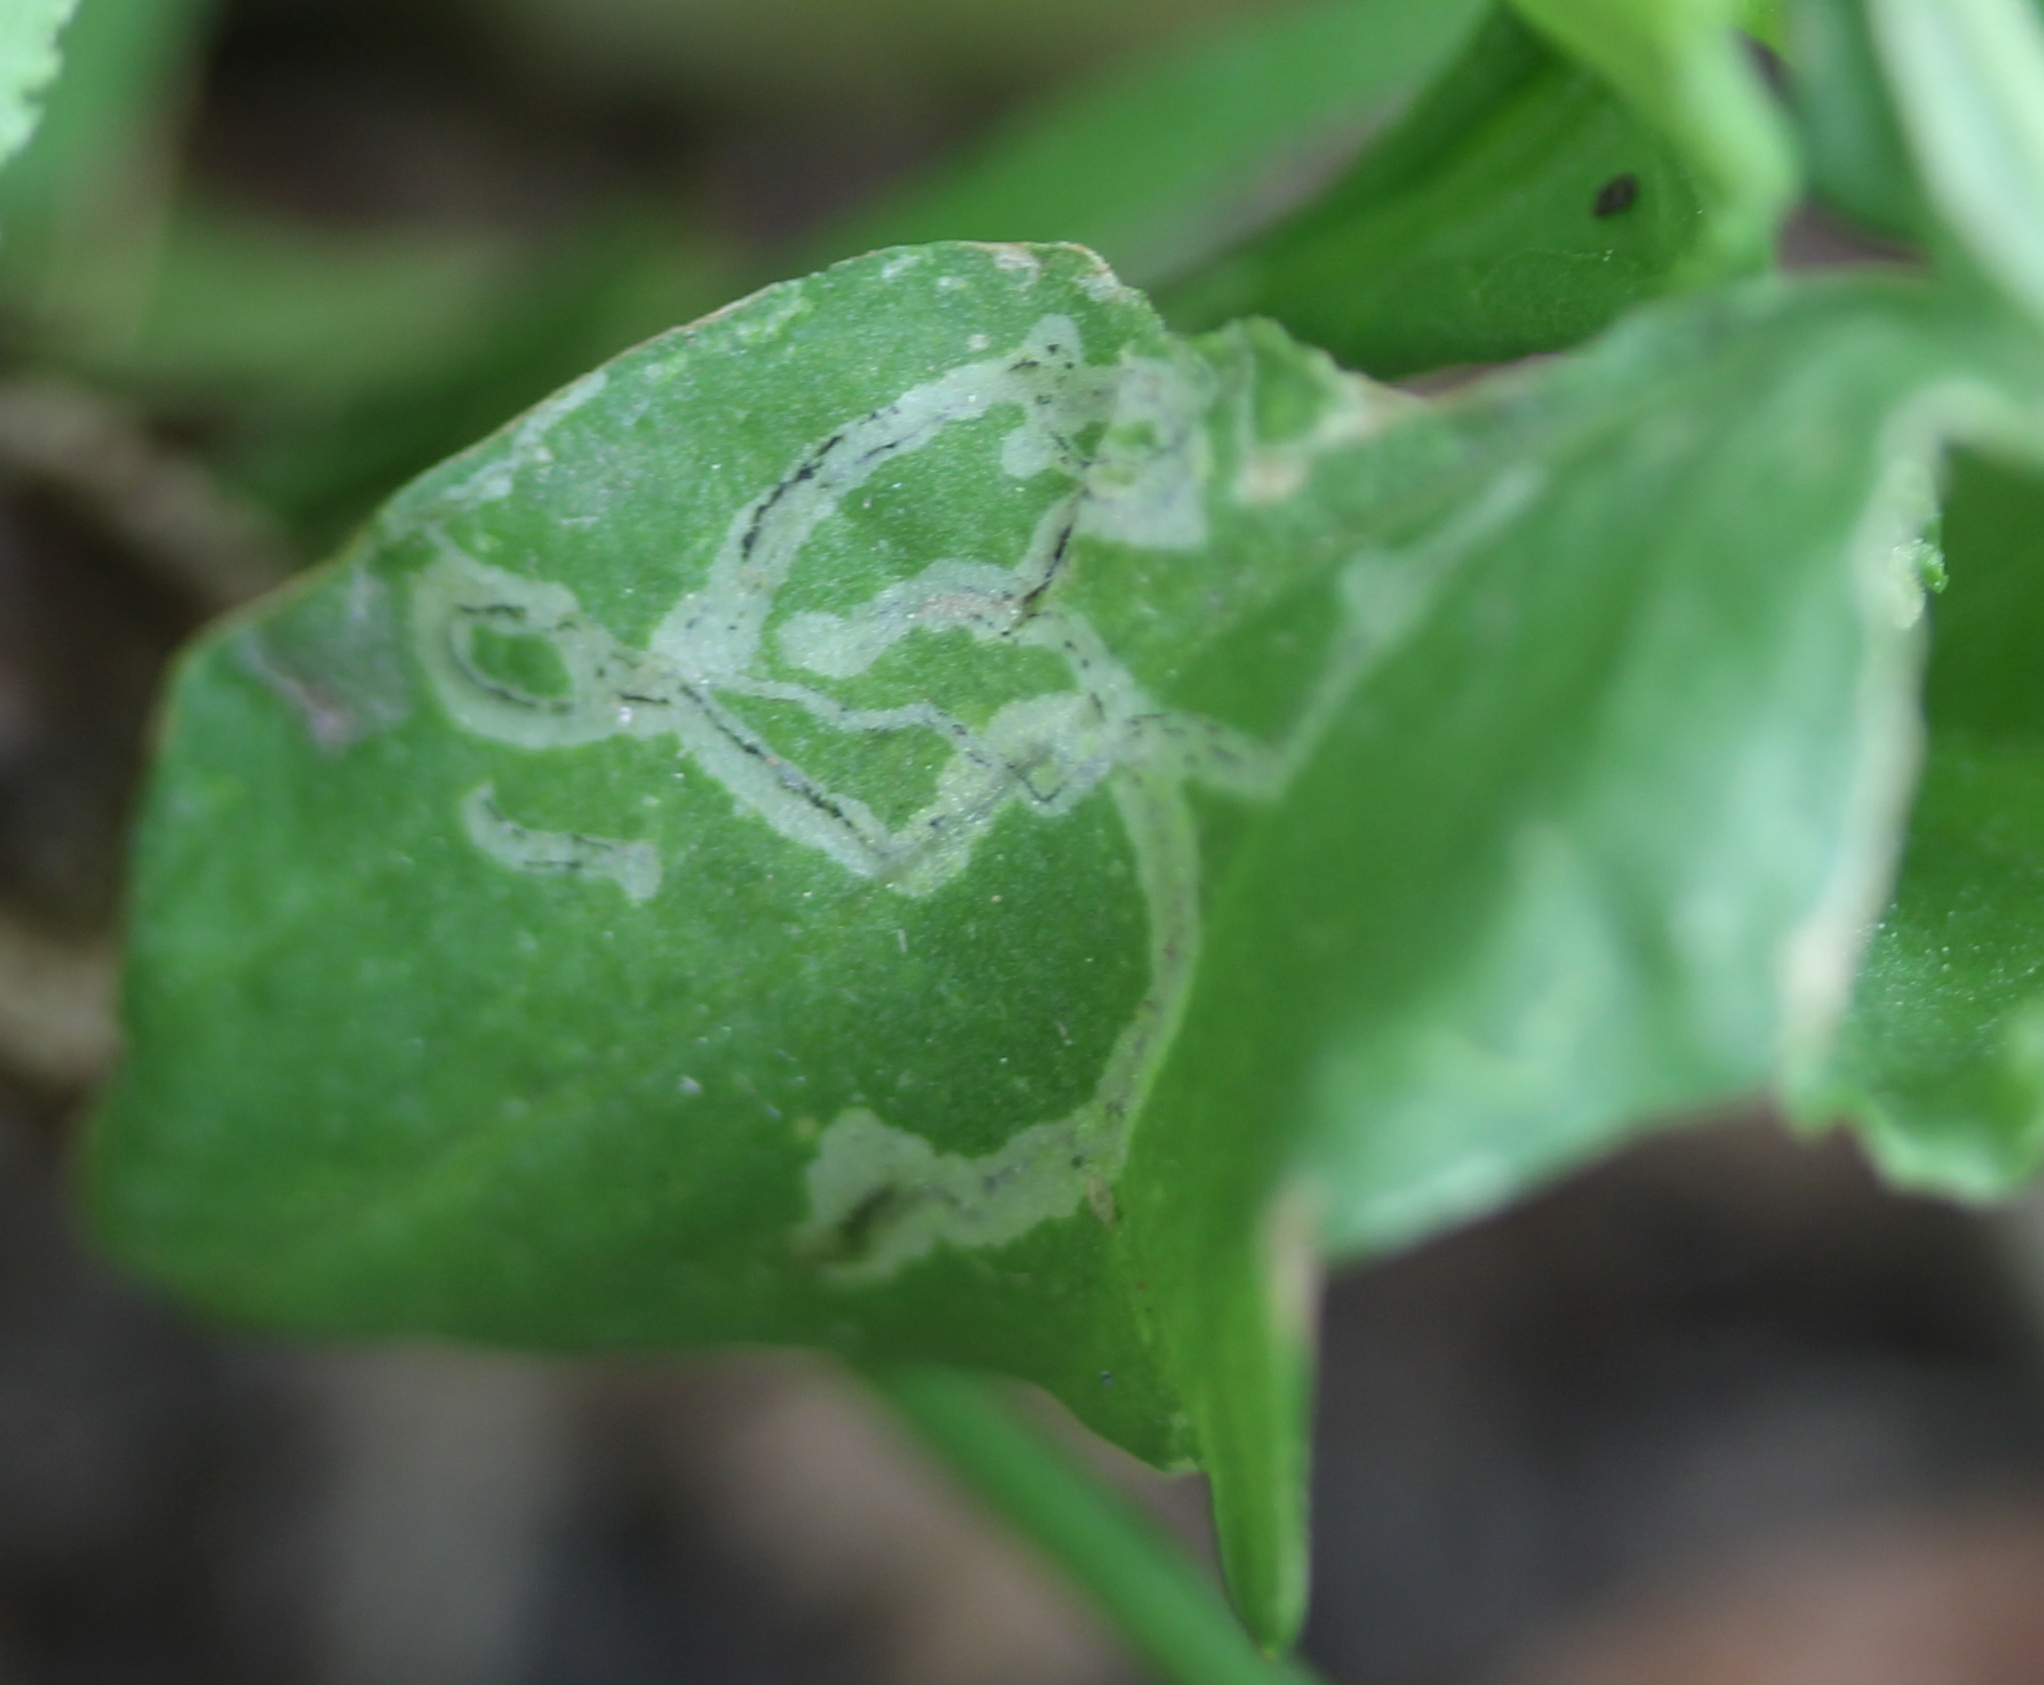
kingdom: Animalia
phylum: Arthropoda
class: Insecta
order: Diptera
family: Agromyzidae
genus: Liriomyza
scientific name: Liriomyza brassicae
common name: Serpentine leaf miner
